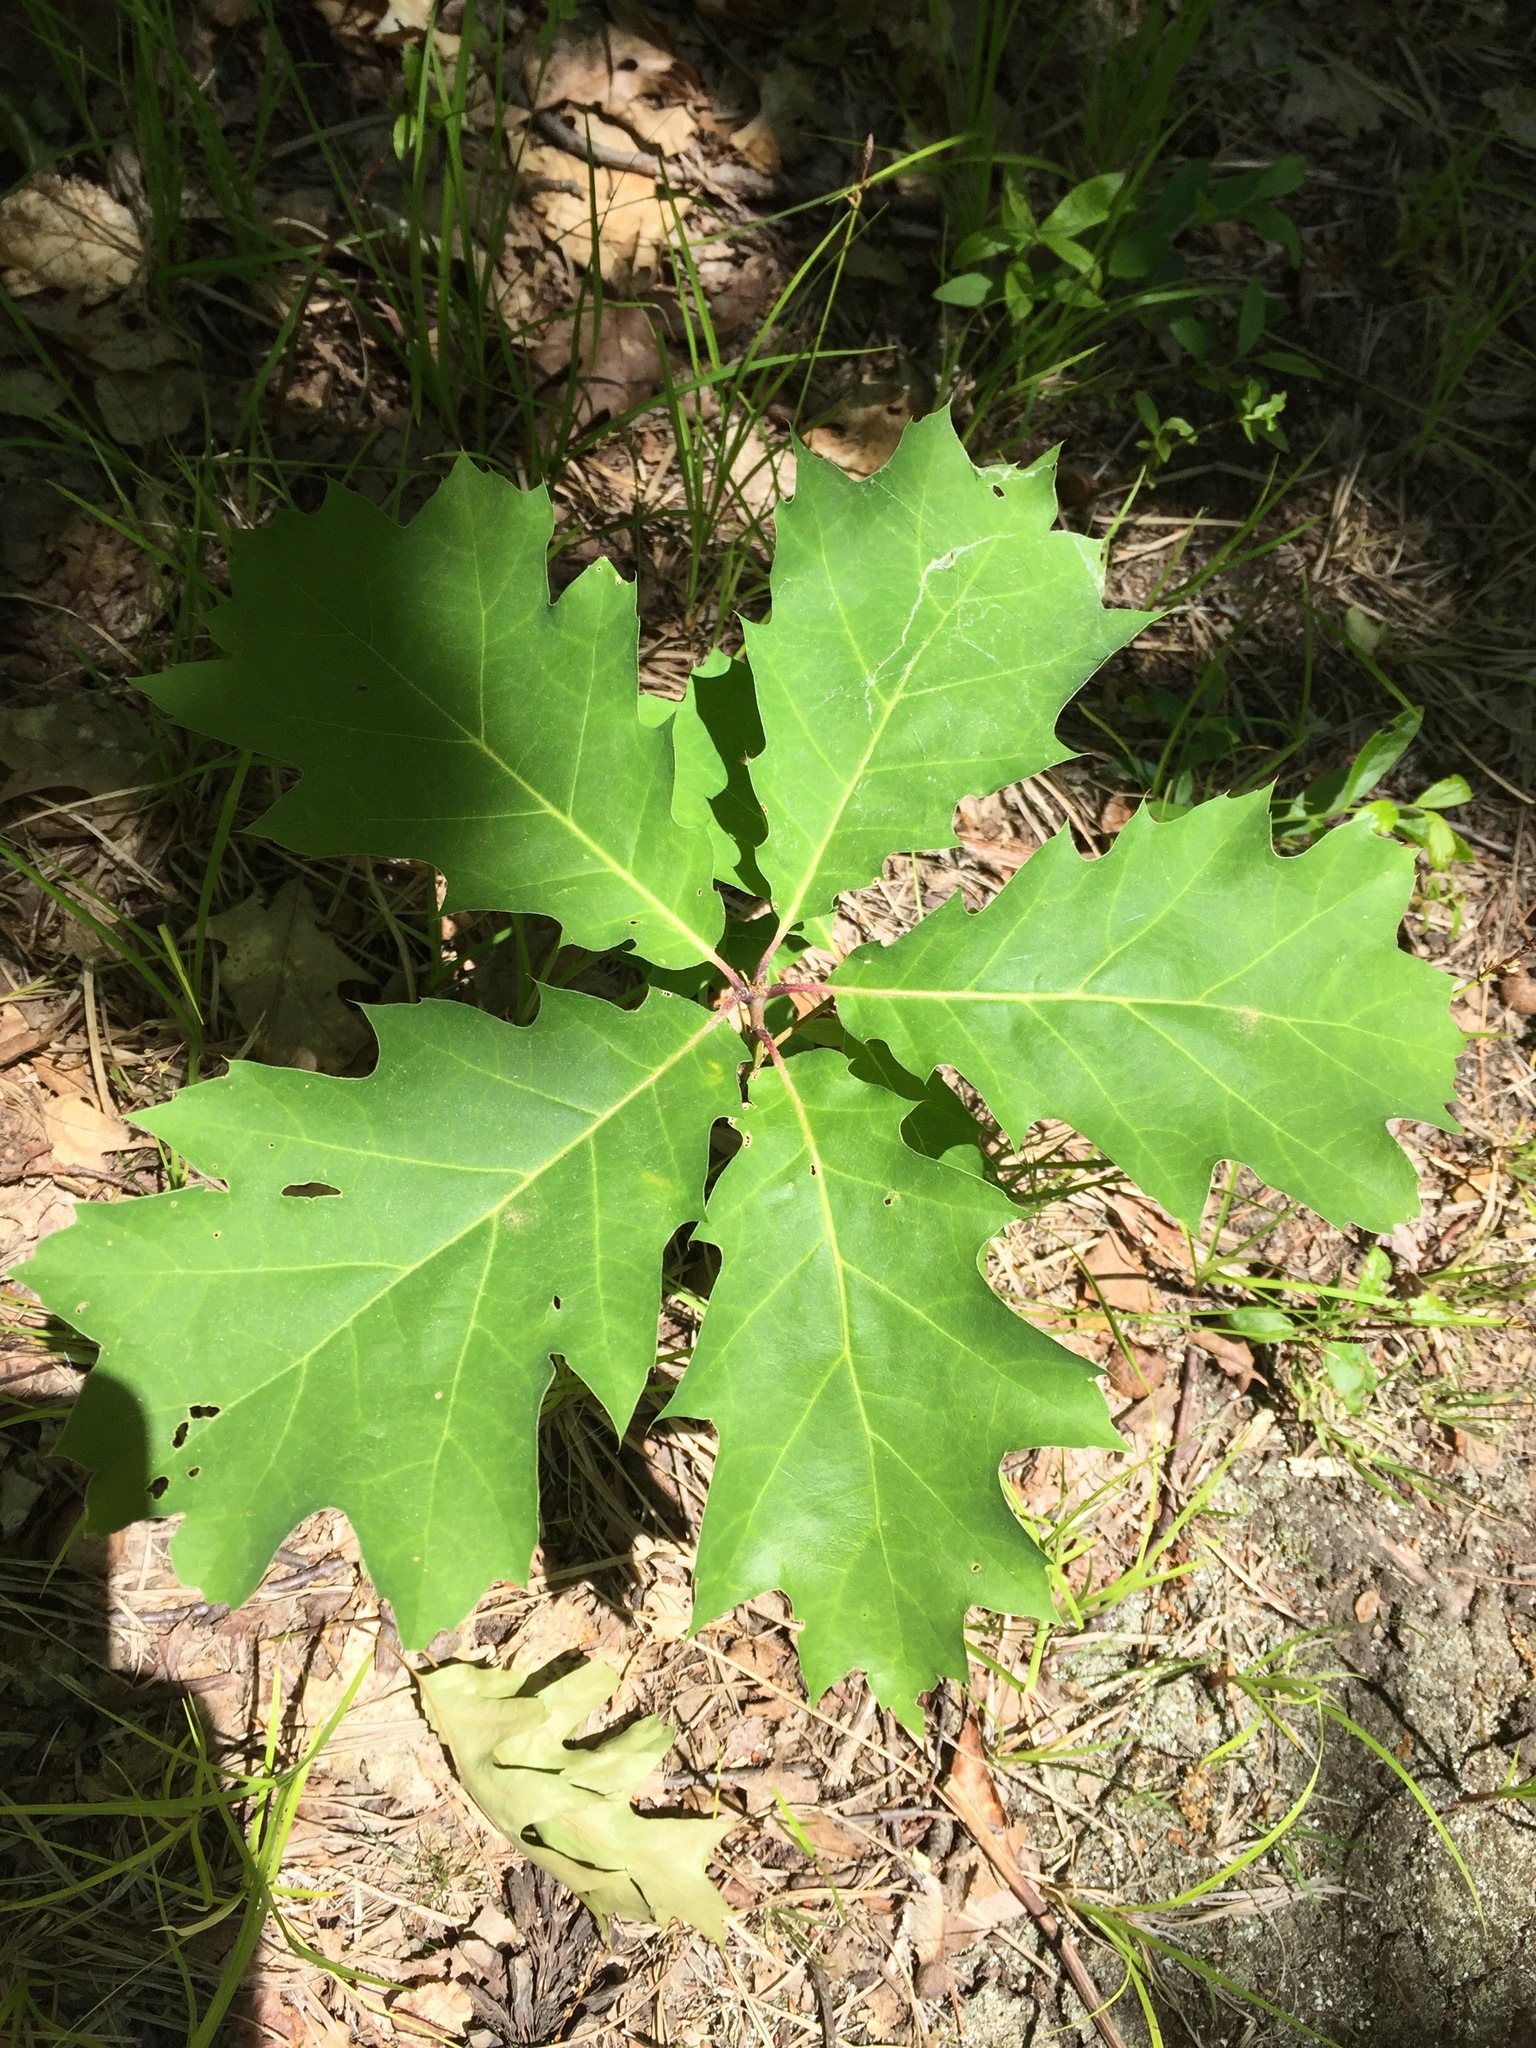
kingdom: Plantae
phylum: Tracheophyta
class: Magnoliopsida
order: Fagales
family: Fagaceae
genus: Quercus
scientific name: Quercus rubra
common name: Red oak
